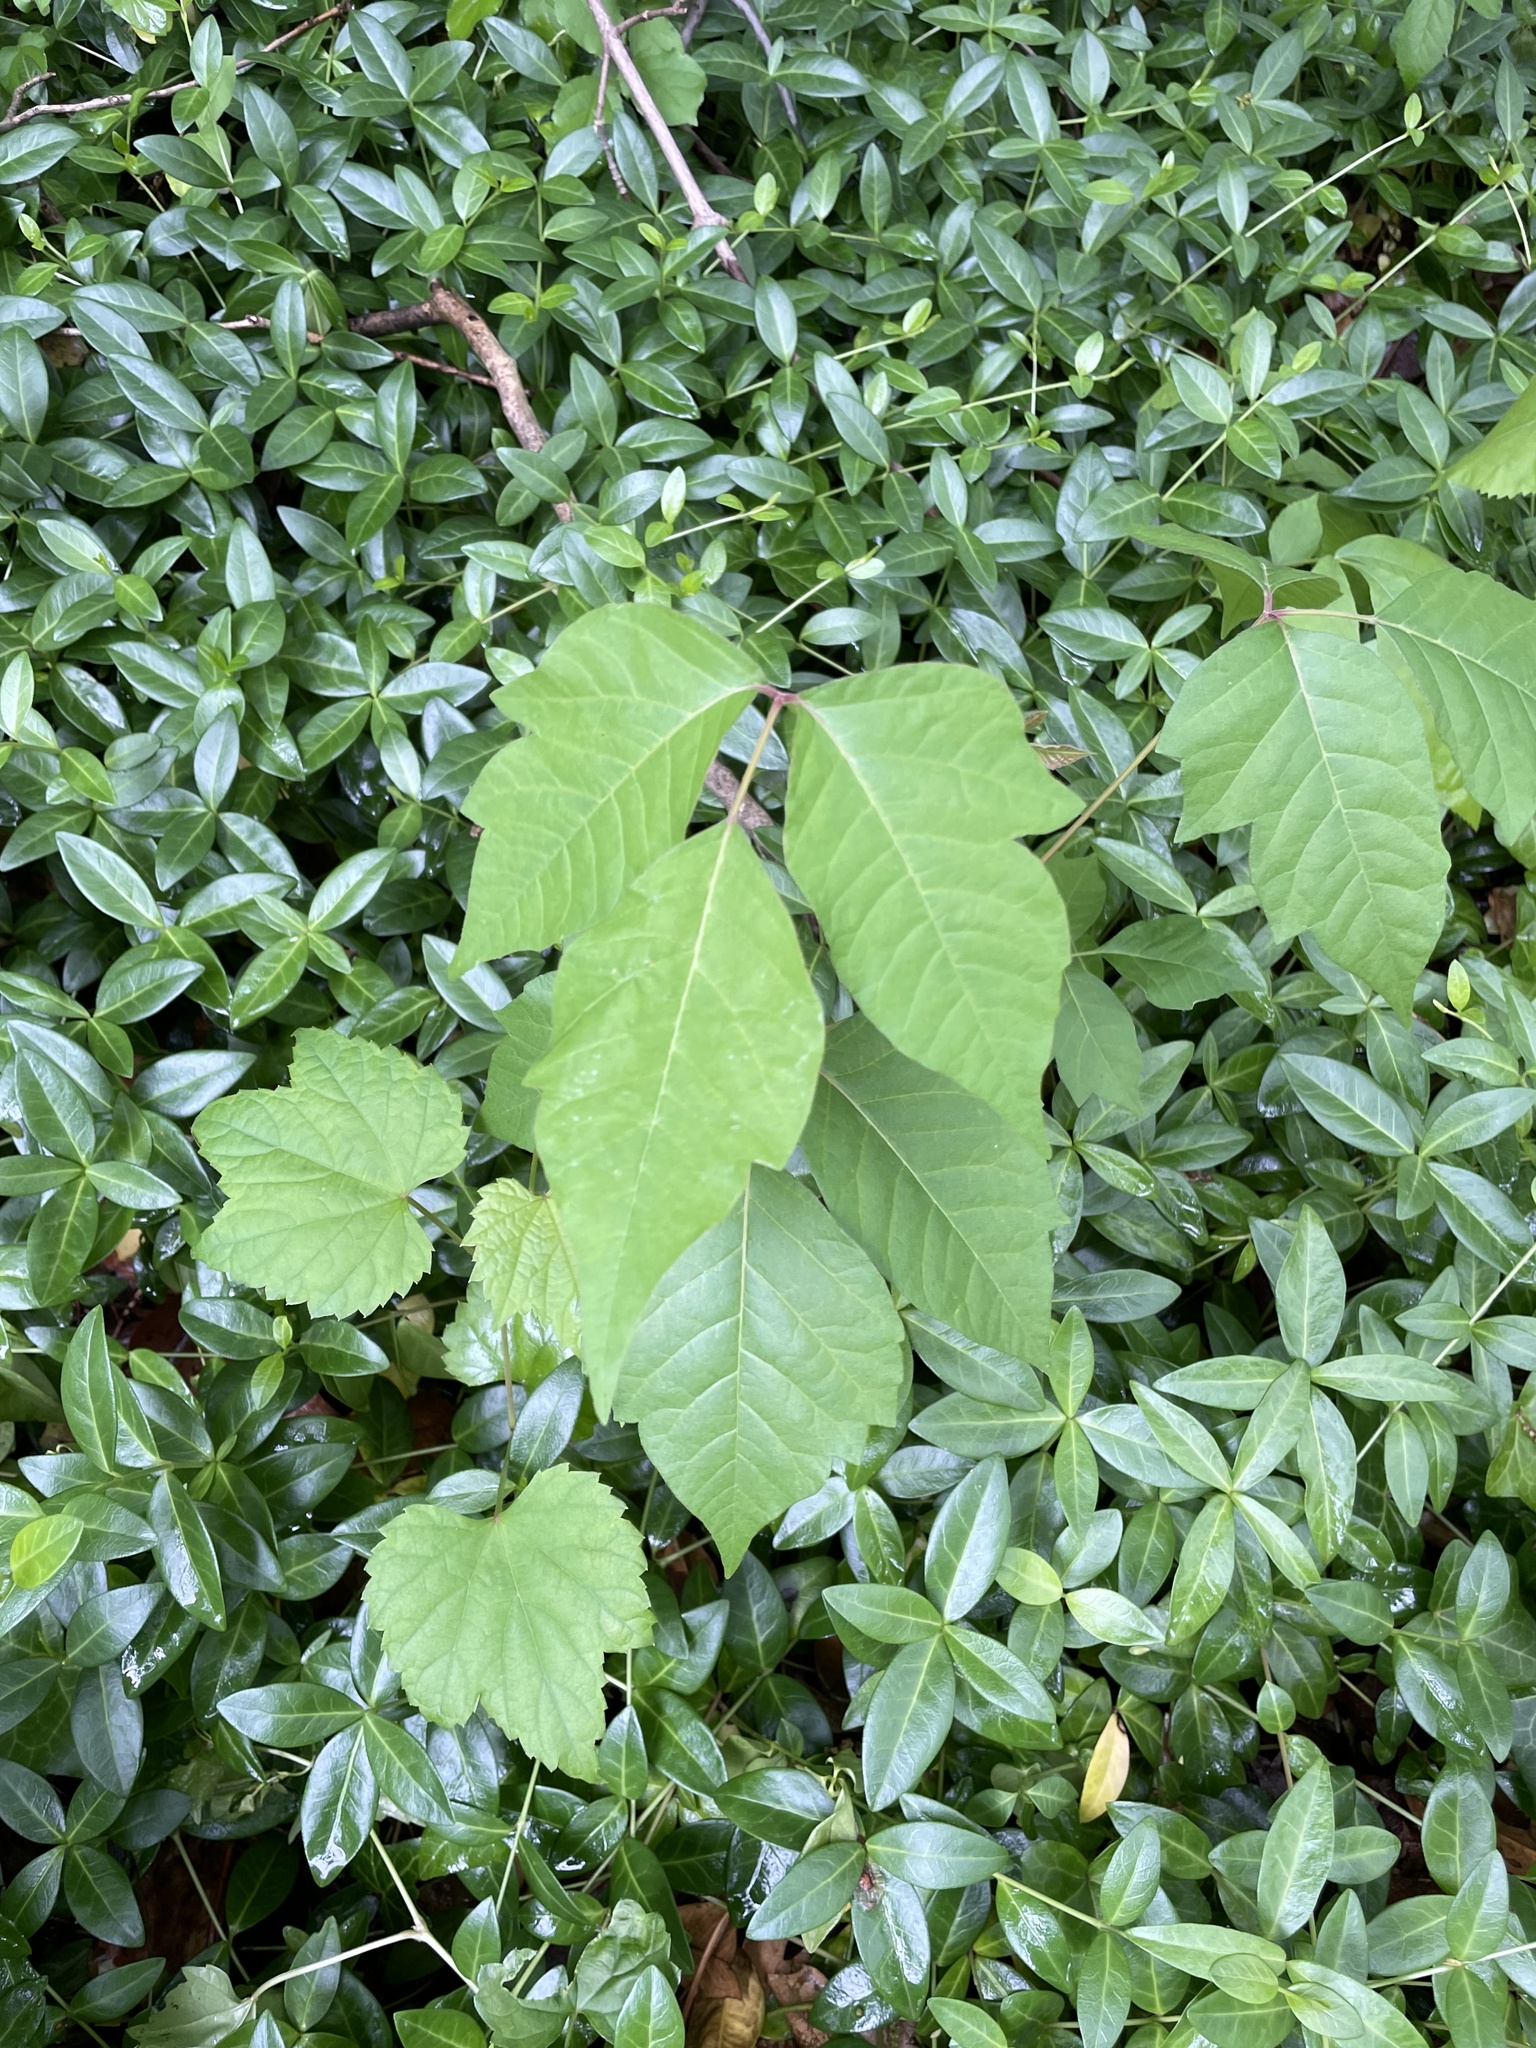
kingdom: Plantae
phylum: Tracheophyta
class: Magnoliopsida
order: Sapindales
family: Anacardiaceae
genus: Toxicodendron
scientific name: Toxicodendron radicans
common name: Poison ivy
